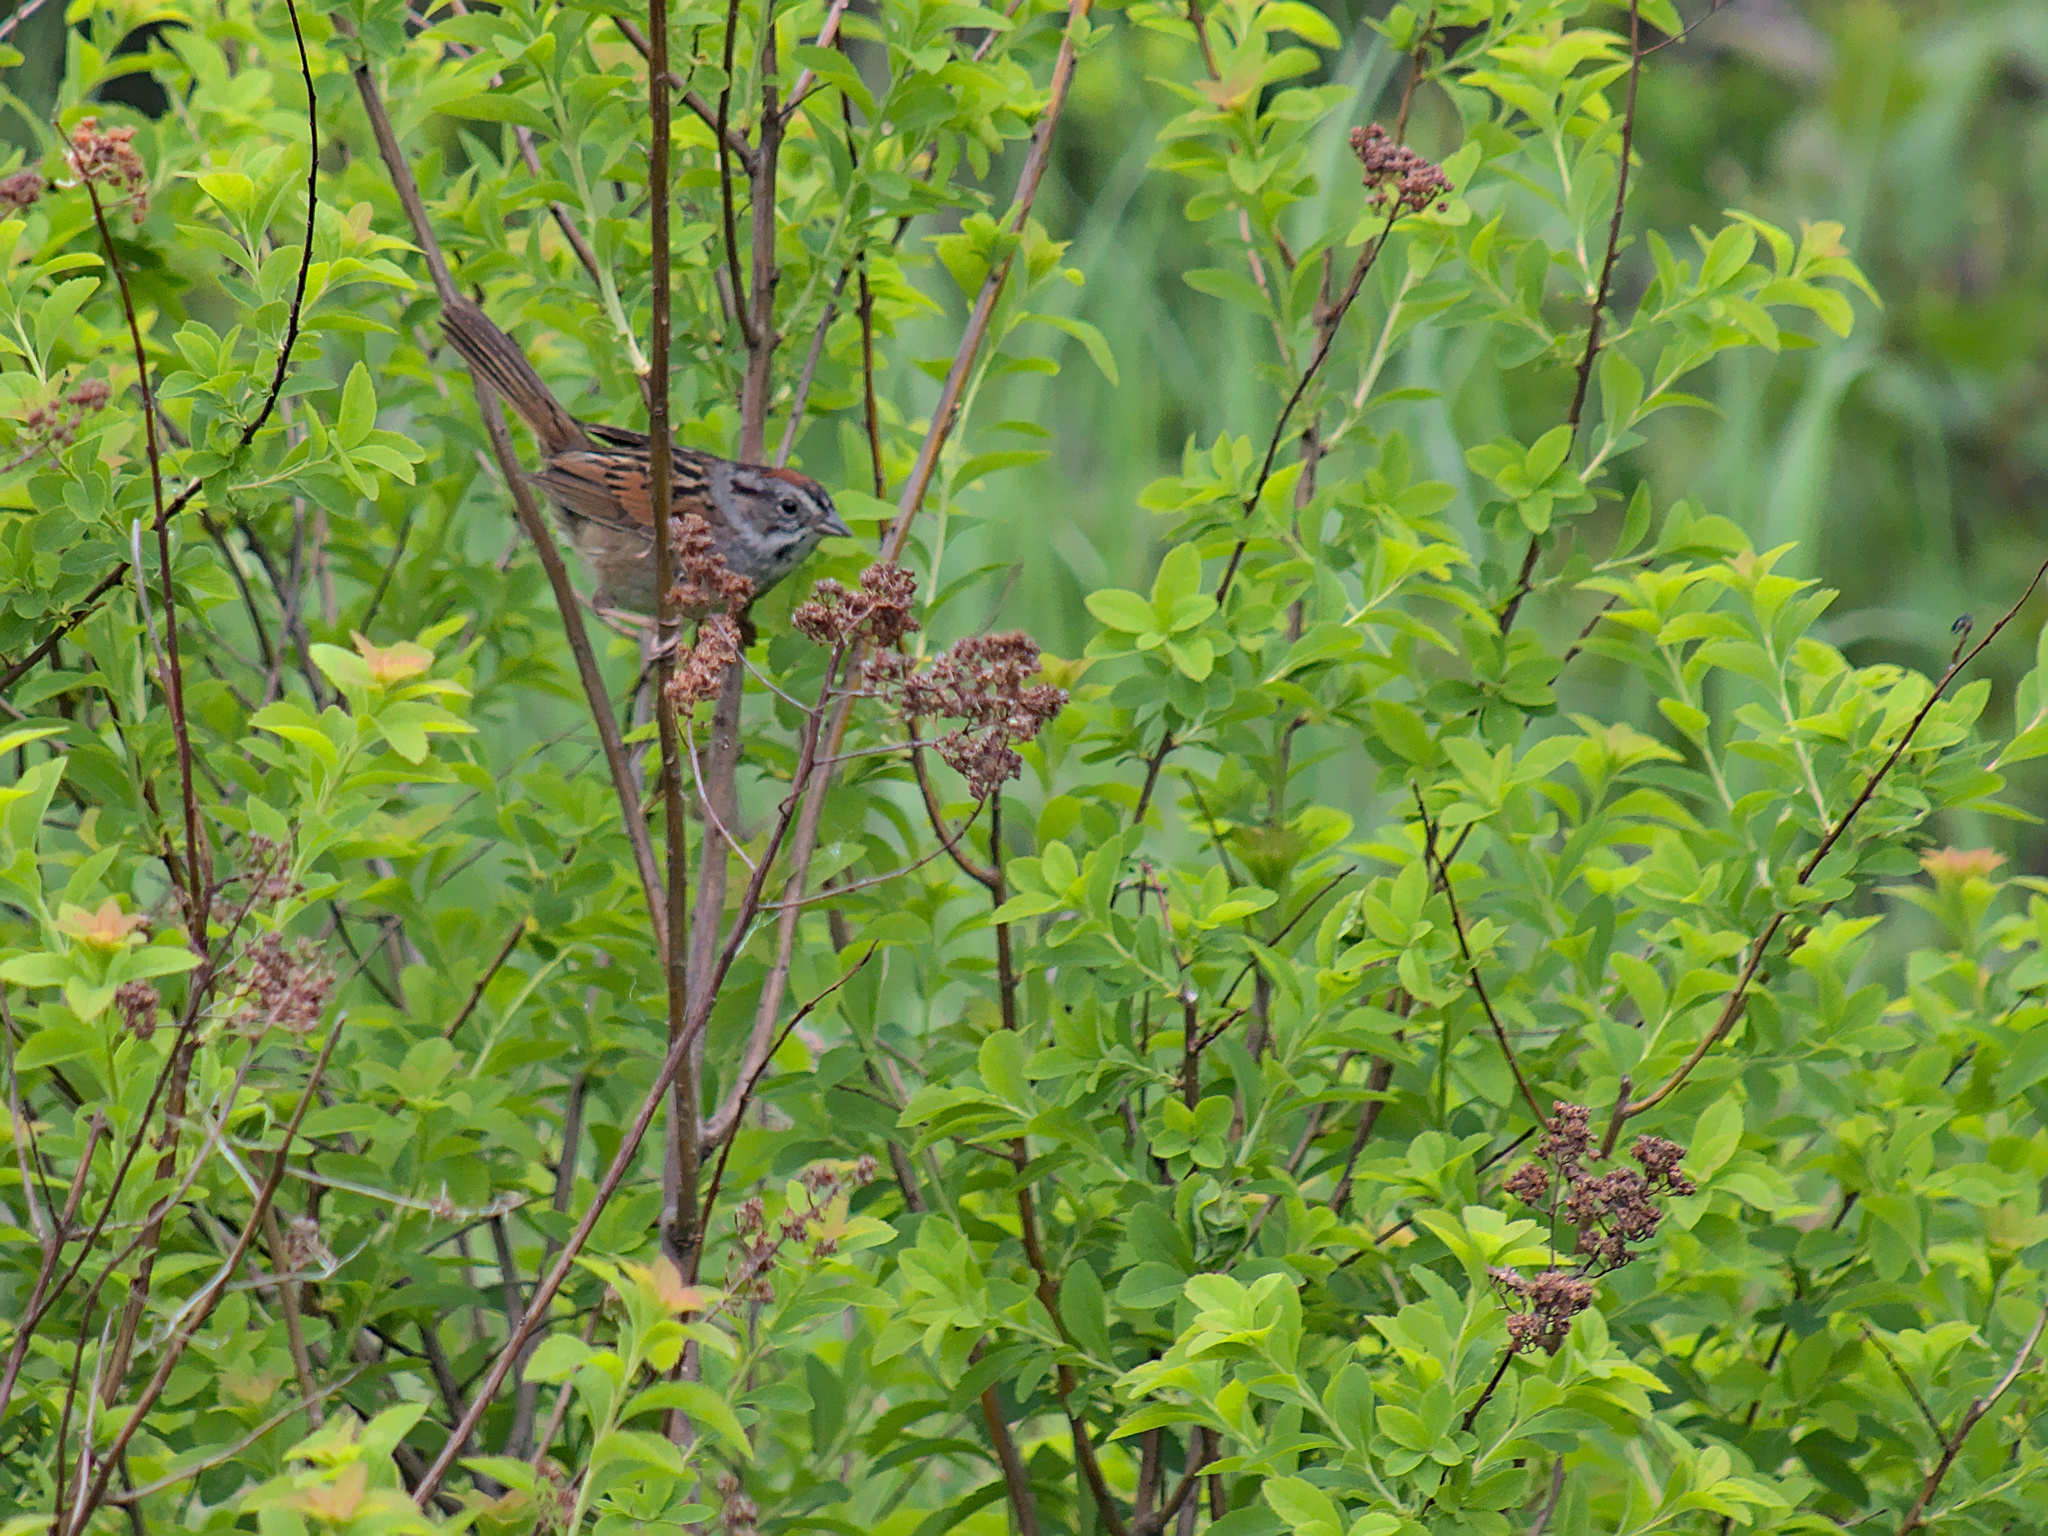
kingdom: Animalia
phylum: Chordata
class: Aves
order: Passeriformes
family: Passerellidae
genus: Melospiza
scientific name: Melospiza georgiana
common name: Swamp sparrow
